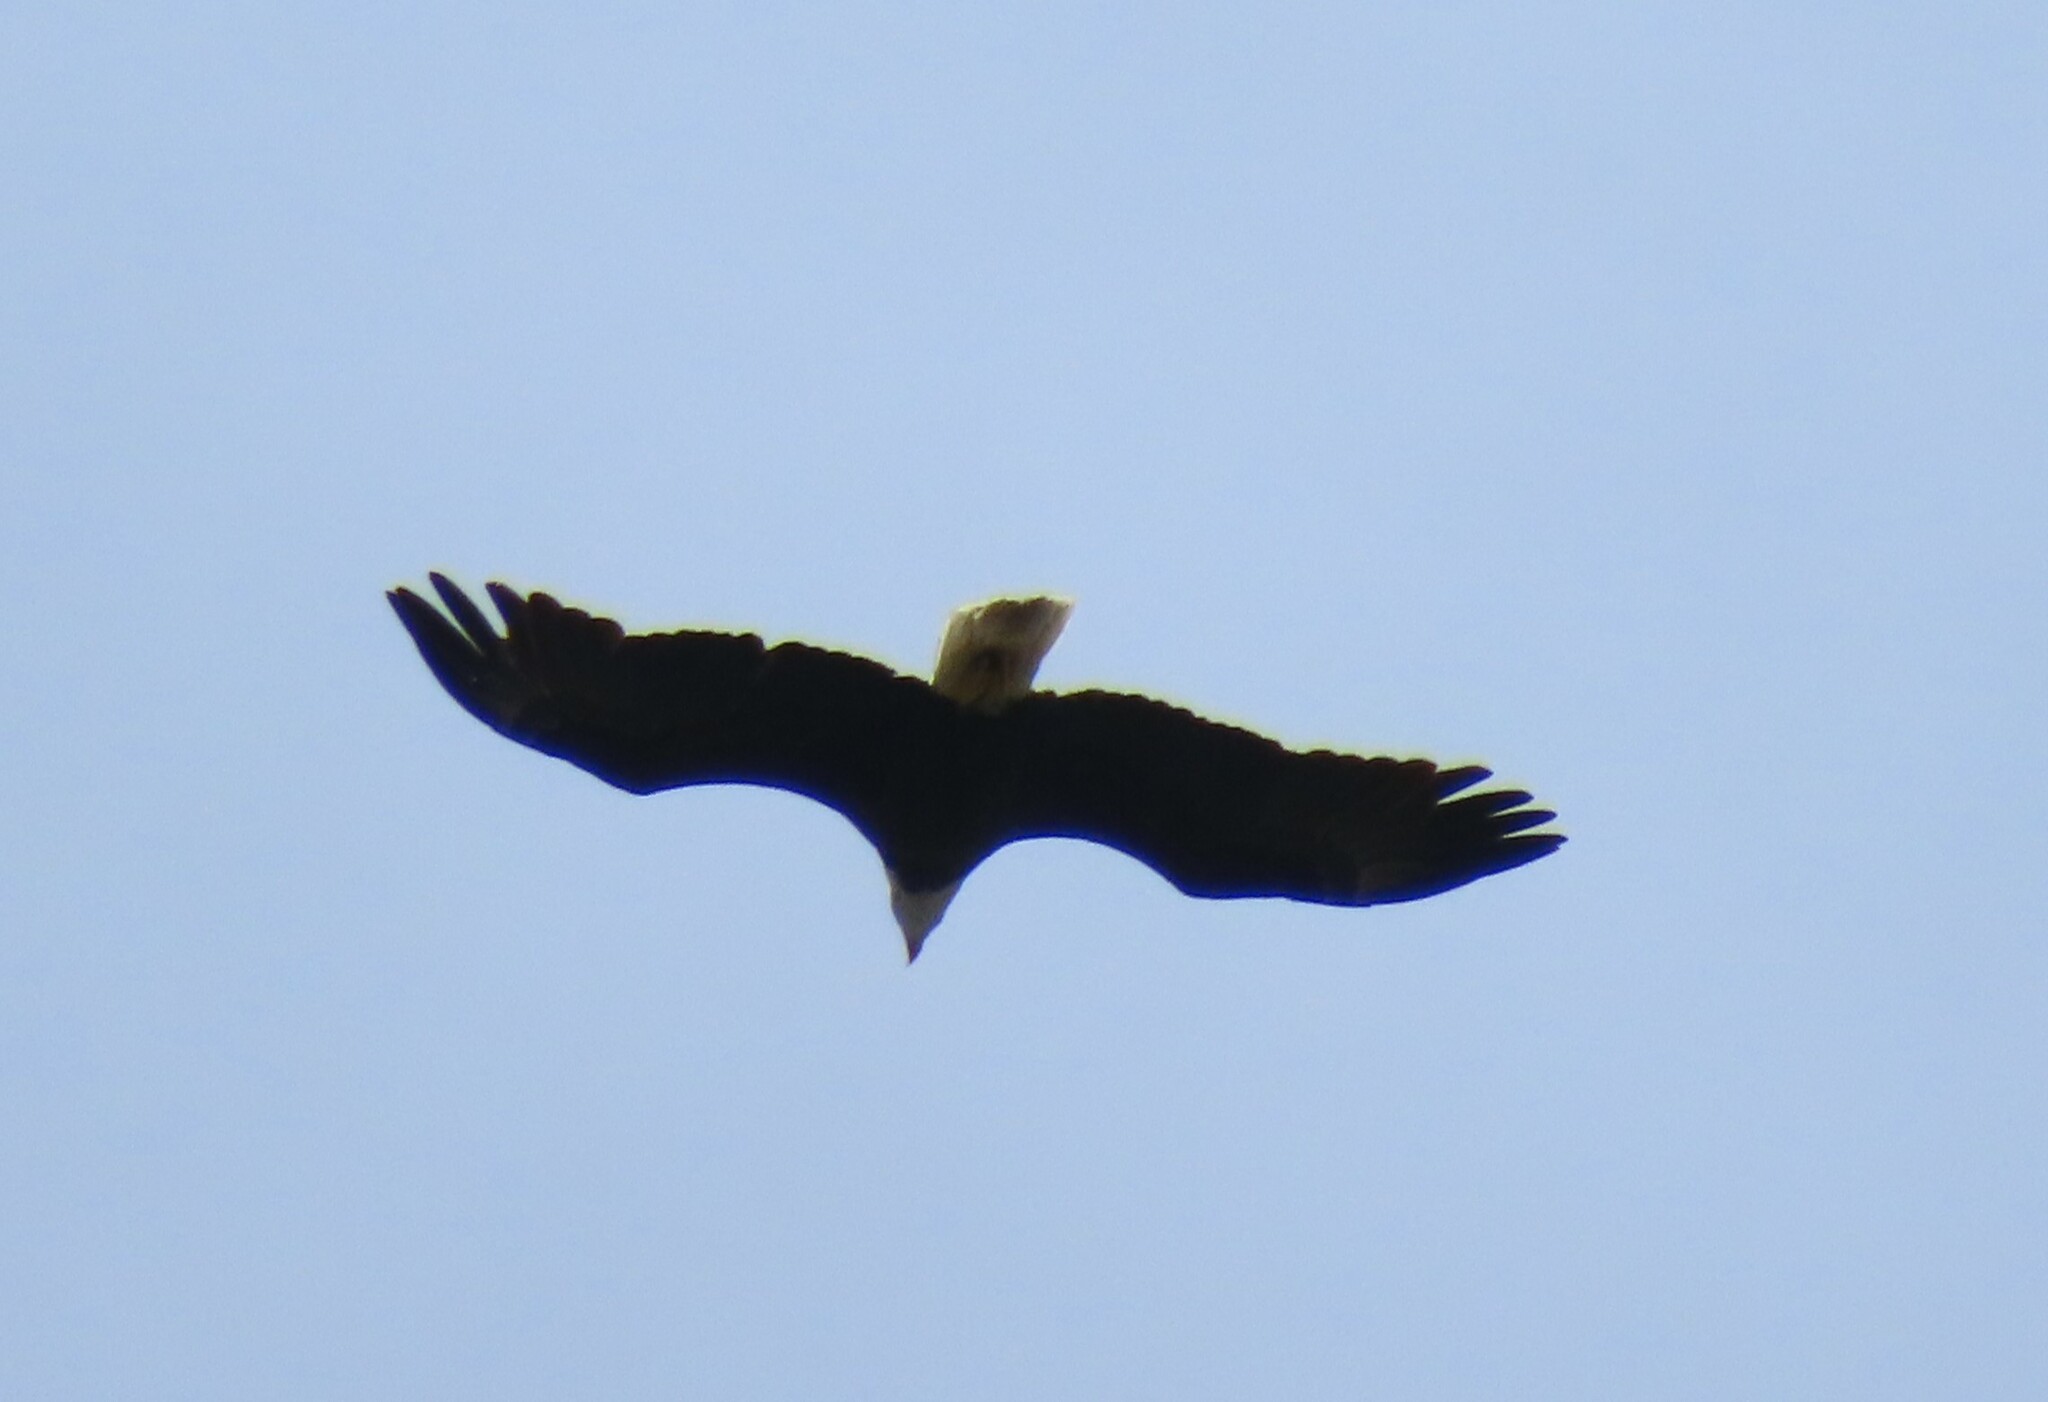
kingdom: Animalia
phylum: Chordata
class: Aves
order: Accipitriformes
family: Accipitridae
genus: Haliaeetus
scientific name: Haliaeetus leucocephalus
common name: Bald eagle
